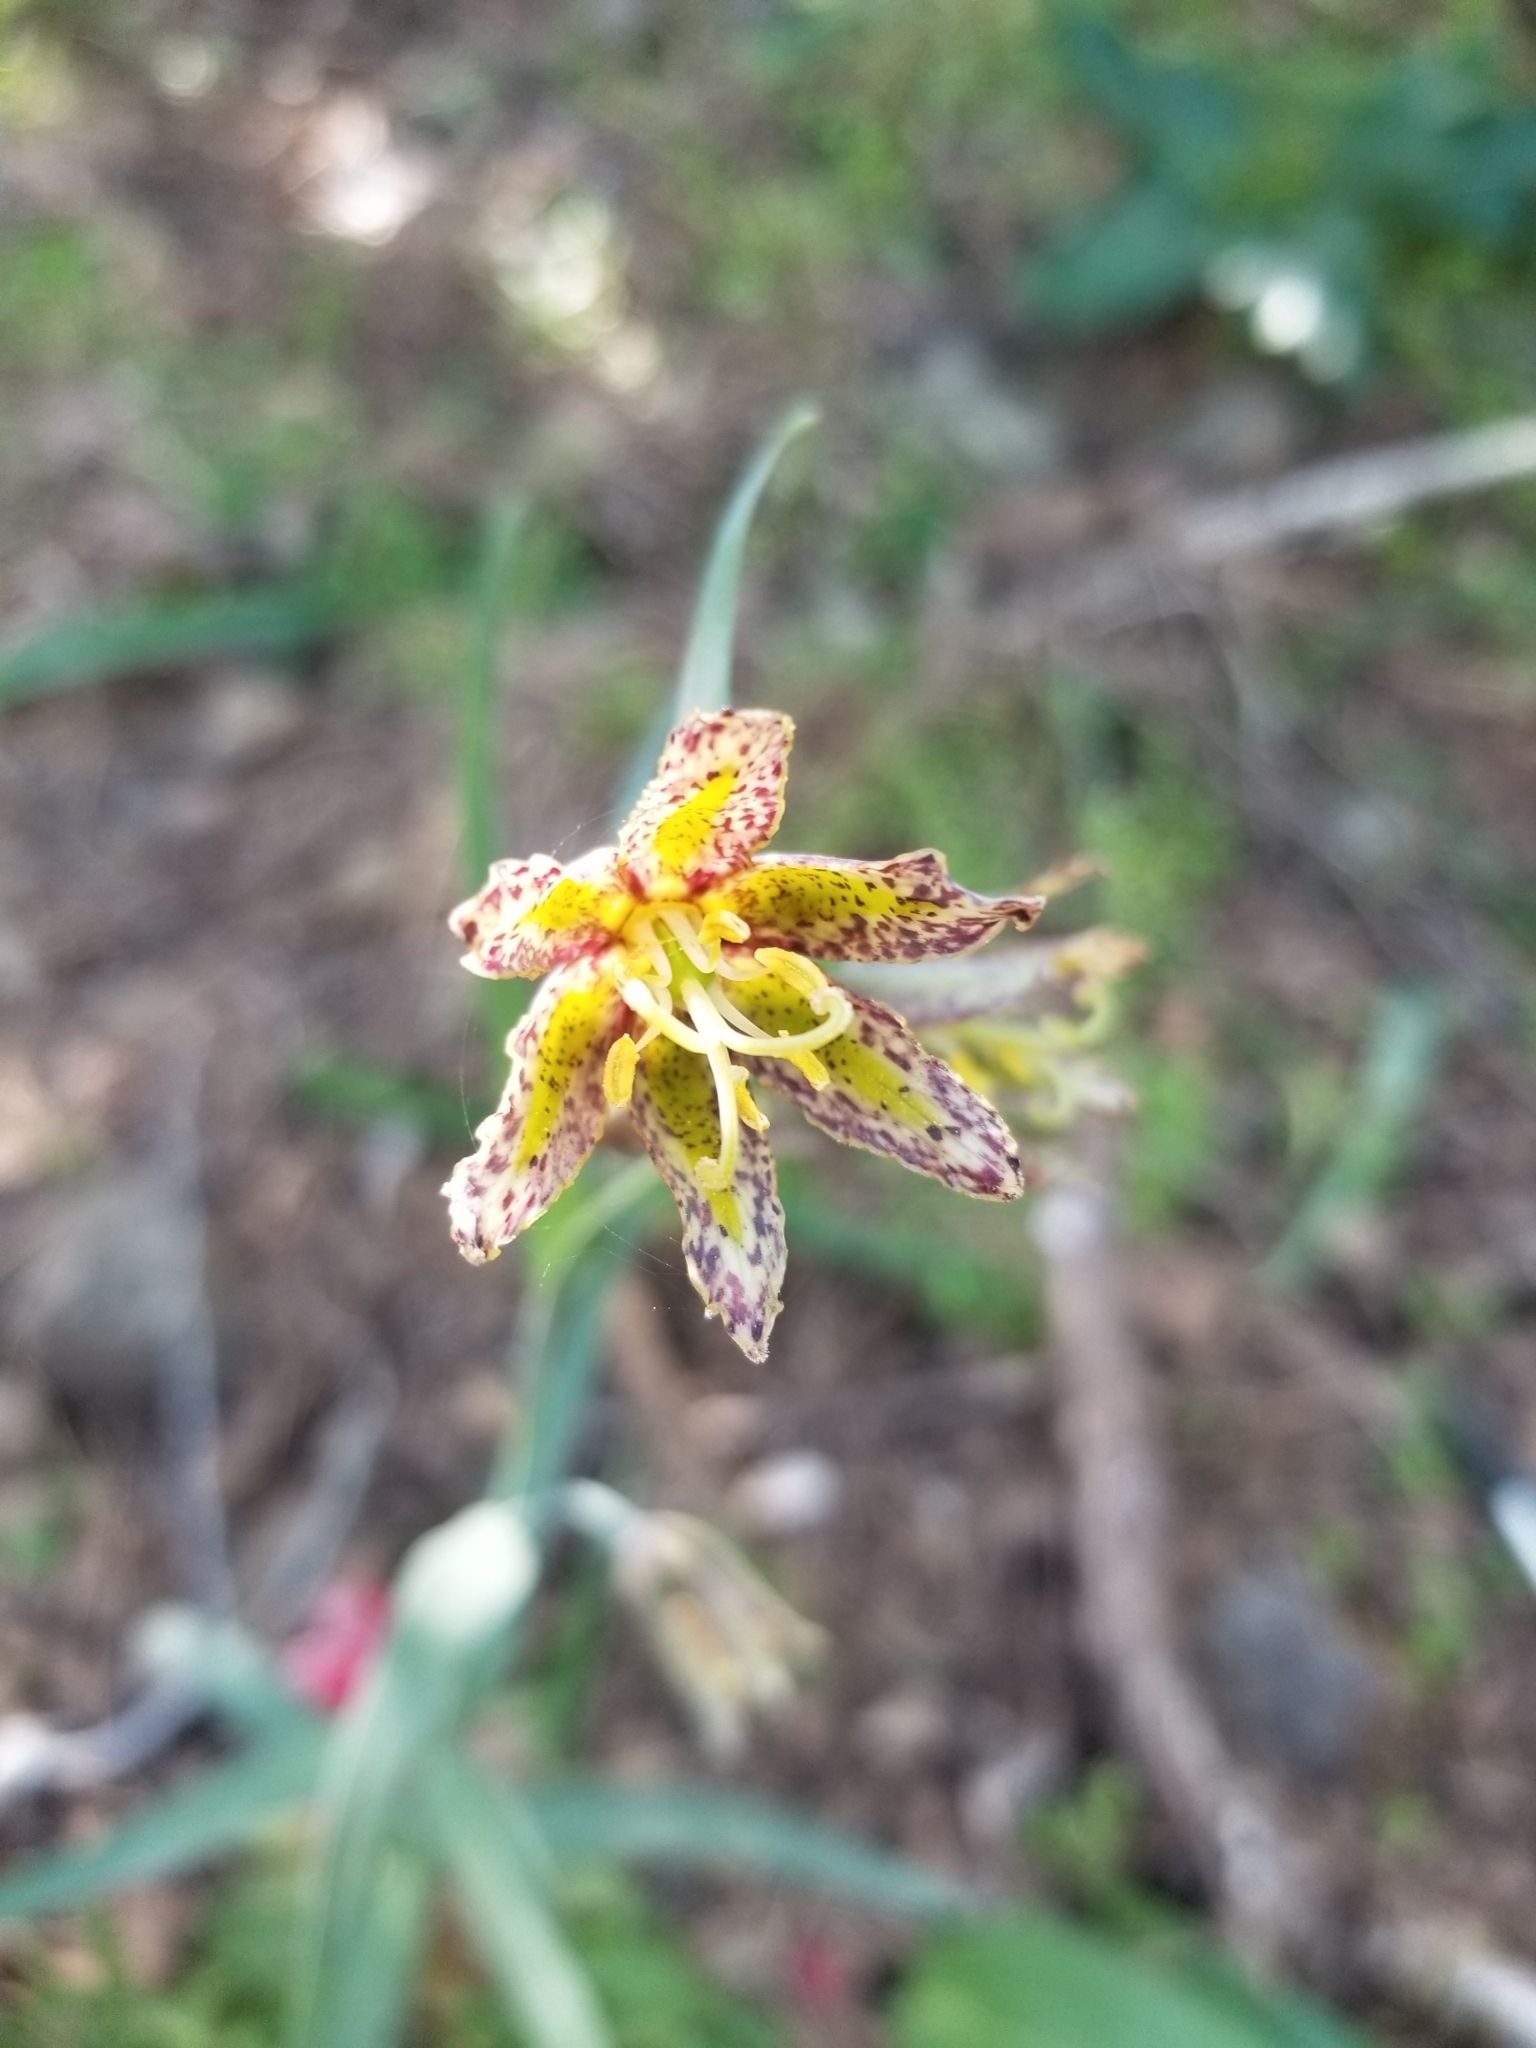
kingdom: Plantae
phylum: Tracheophyta
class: Liliopsida
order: Liliales
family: Liliaceae
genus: Fritillaria
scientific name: Fritillaria affinis
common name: Ojai fritillary
